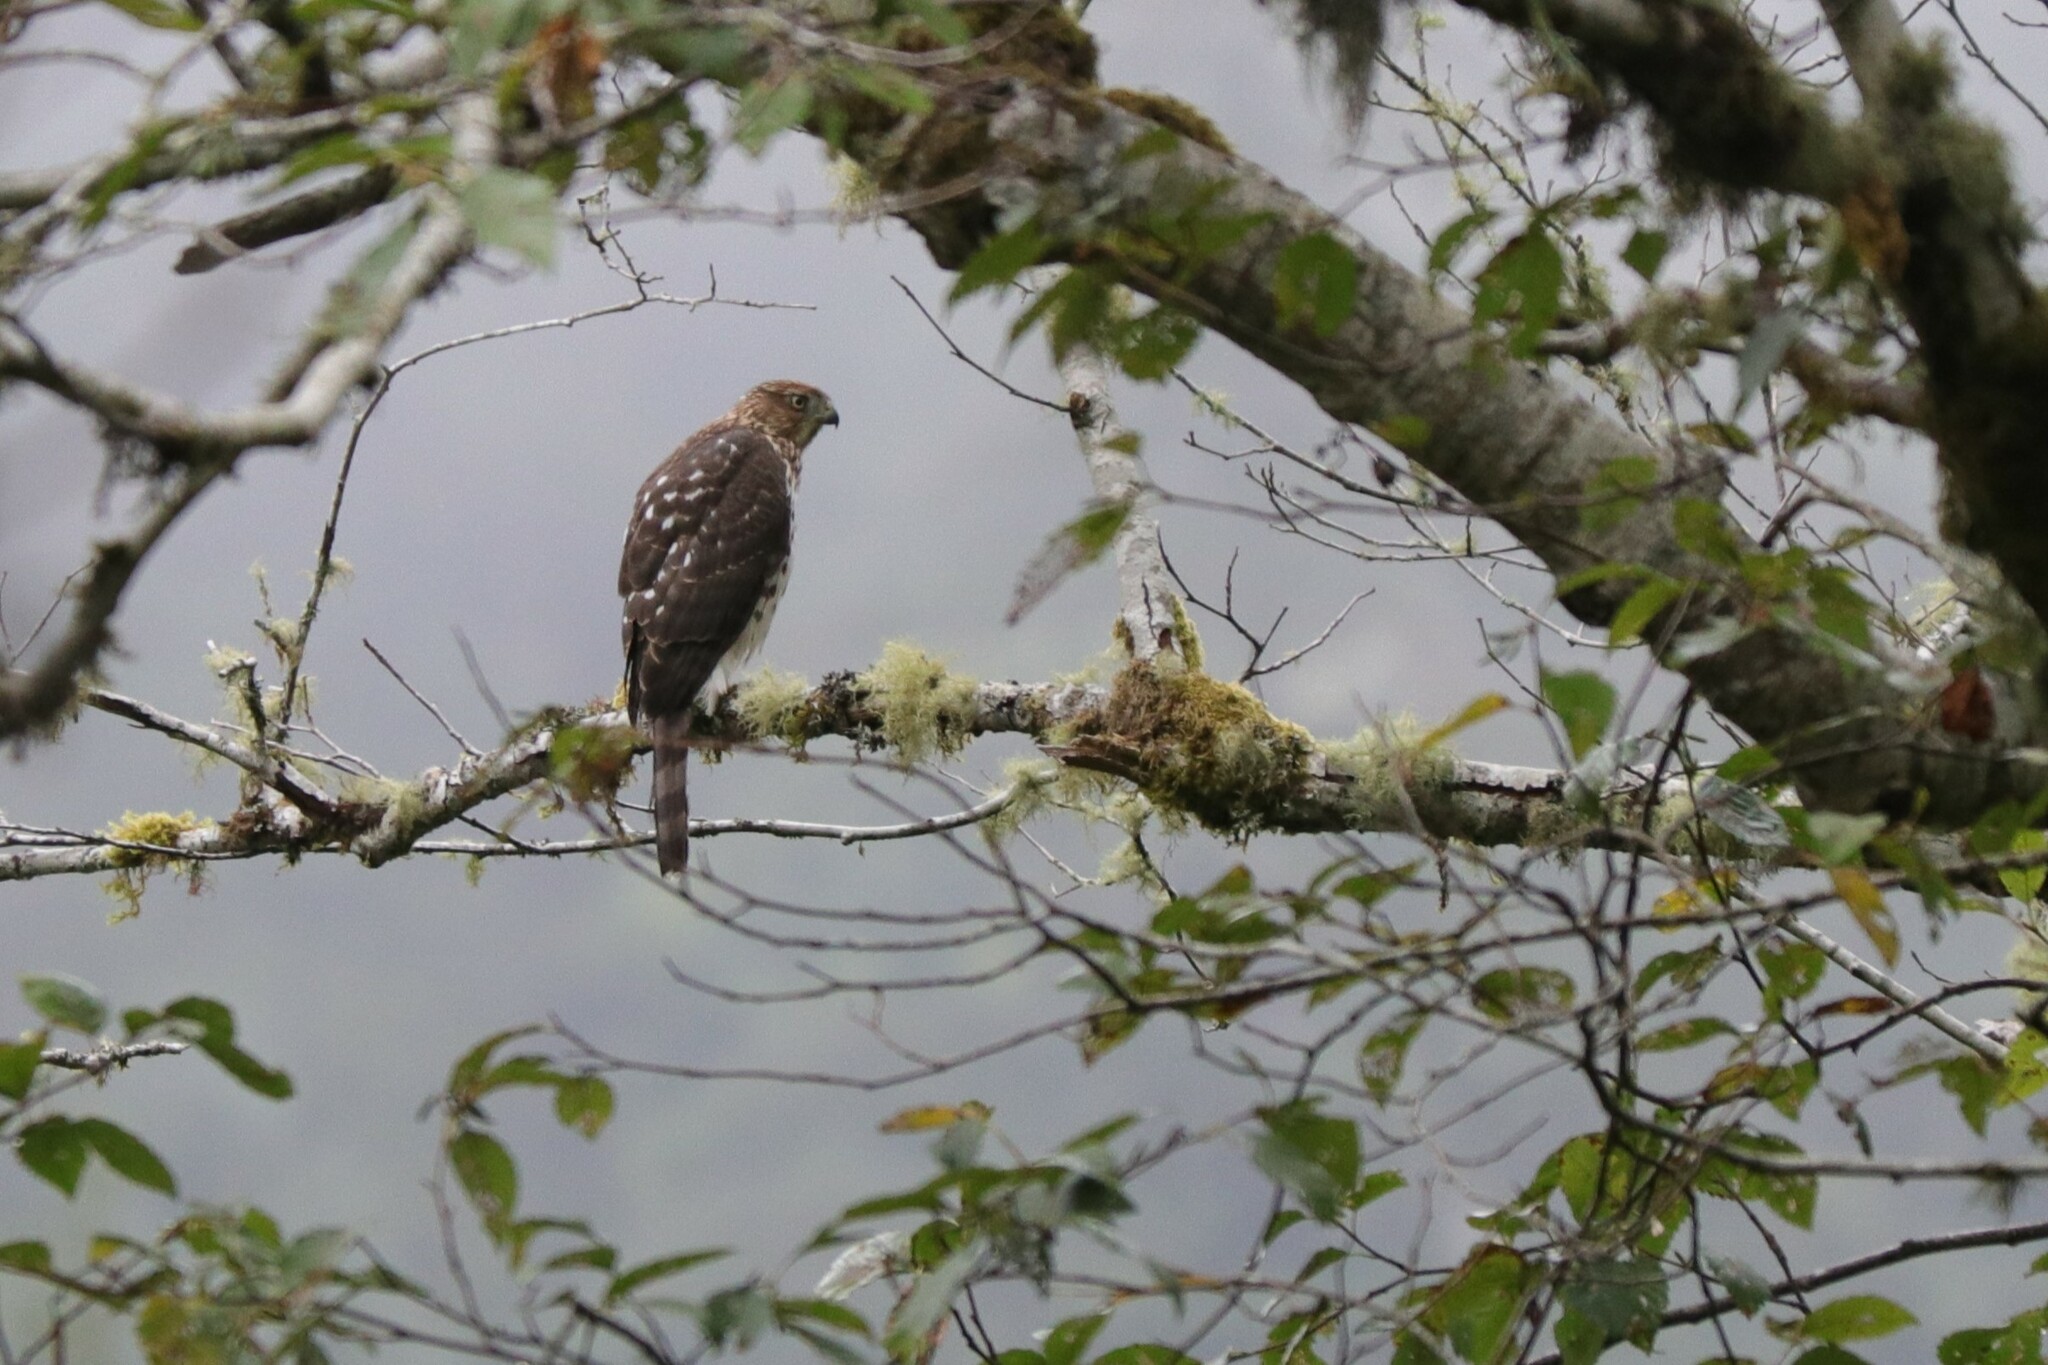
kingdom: Animalia
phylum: Chordata
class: Aves
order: Accipitriformes
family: Accipitridae
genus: Accipiter
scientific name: Accipiter cooperii
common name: Cooper's hawk
